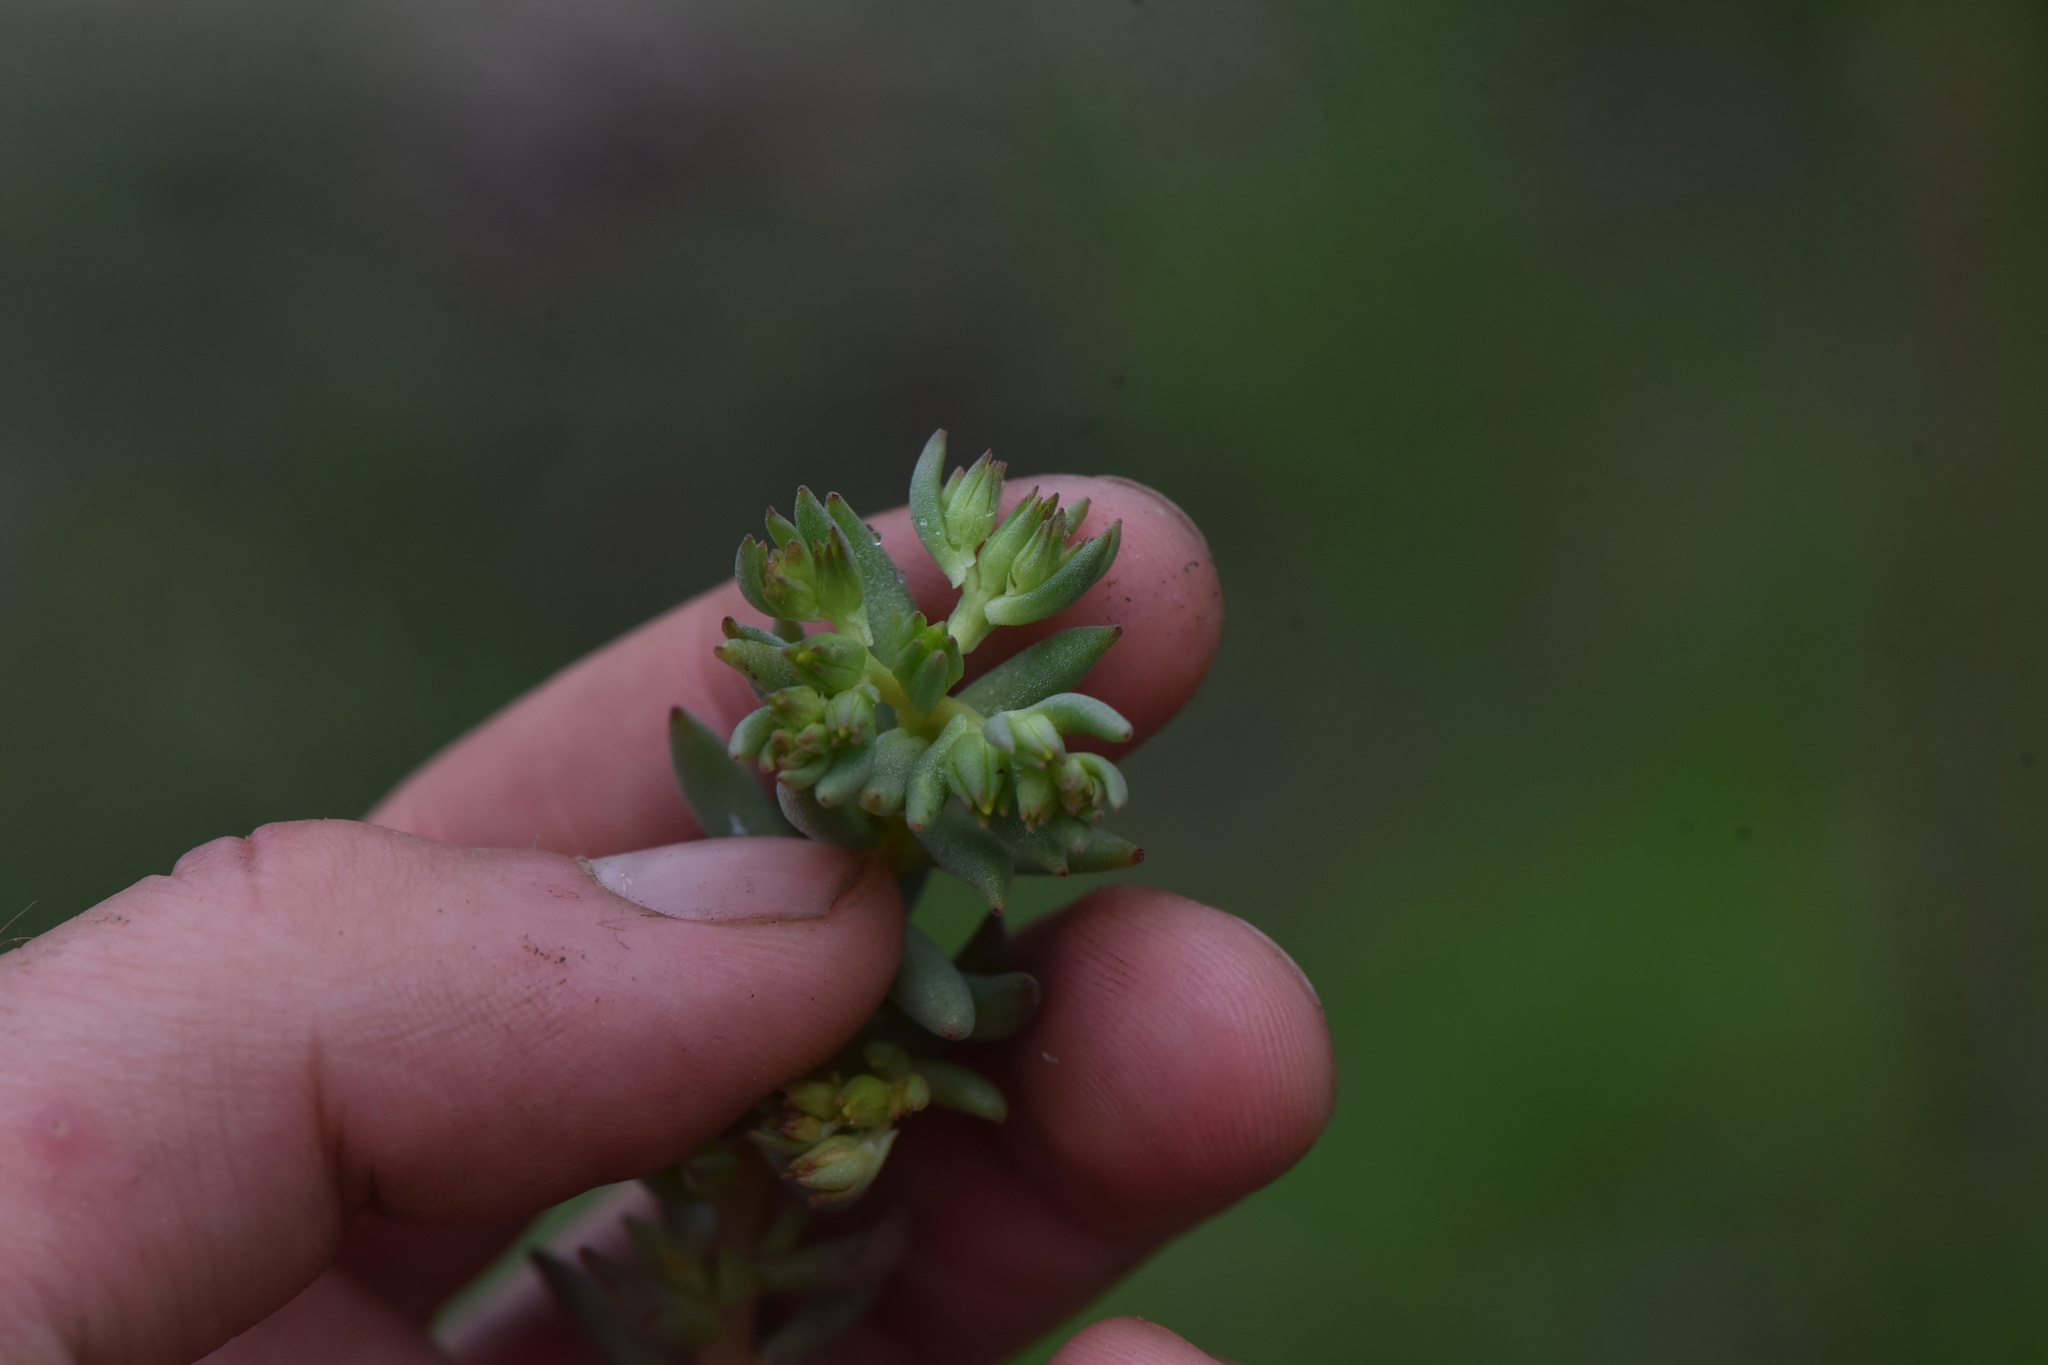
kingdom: Plantae
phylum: Tracheophyta
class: Magnoliopsida
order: Saxifragales
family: Crassulaceae
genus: Sedum
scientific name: Sedum stenopetalum
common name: Narrow-petaled stonecrop
